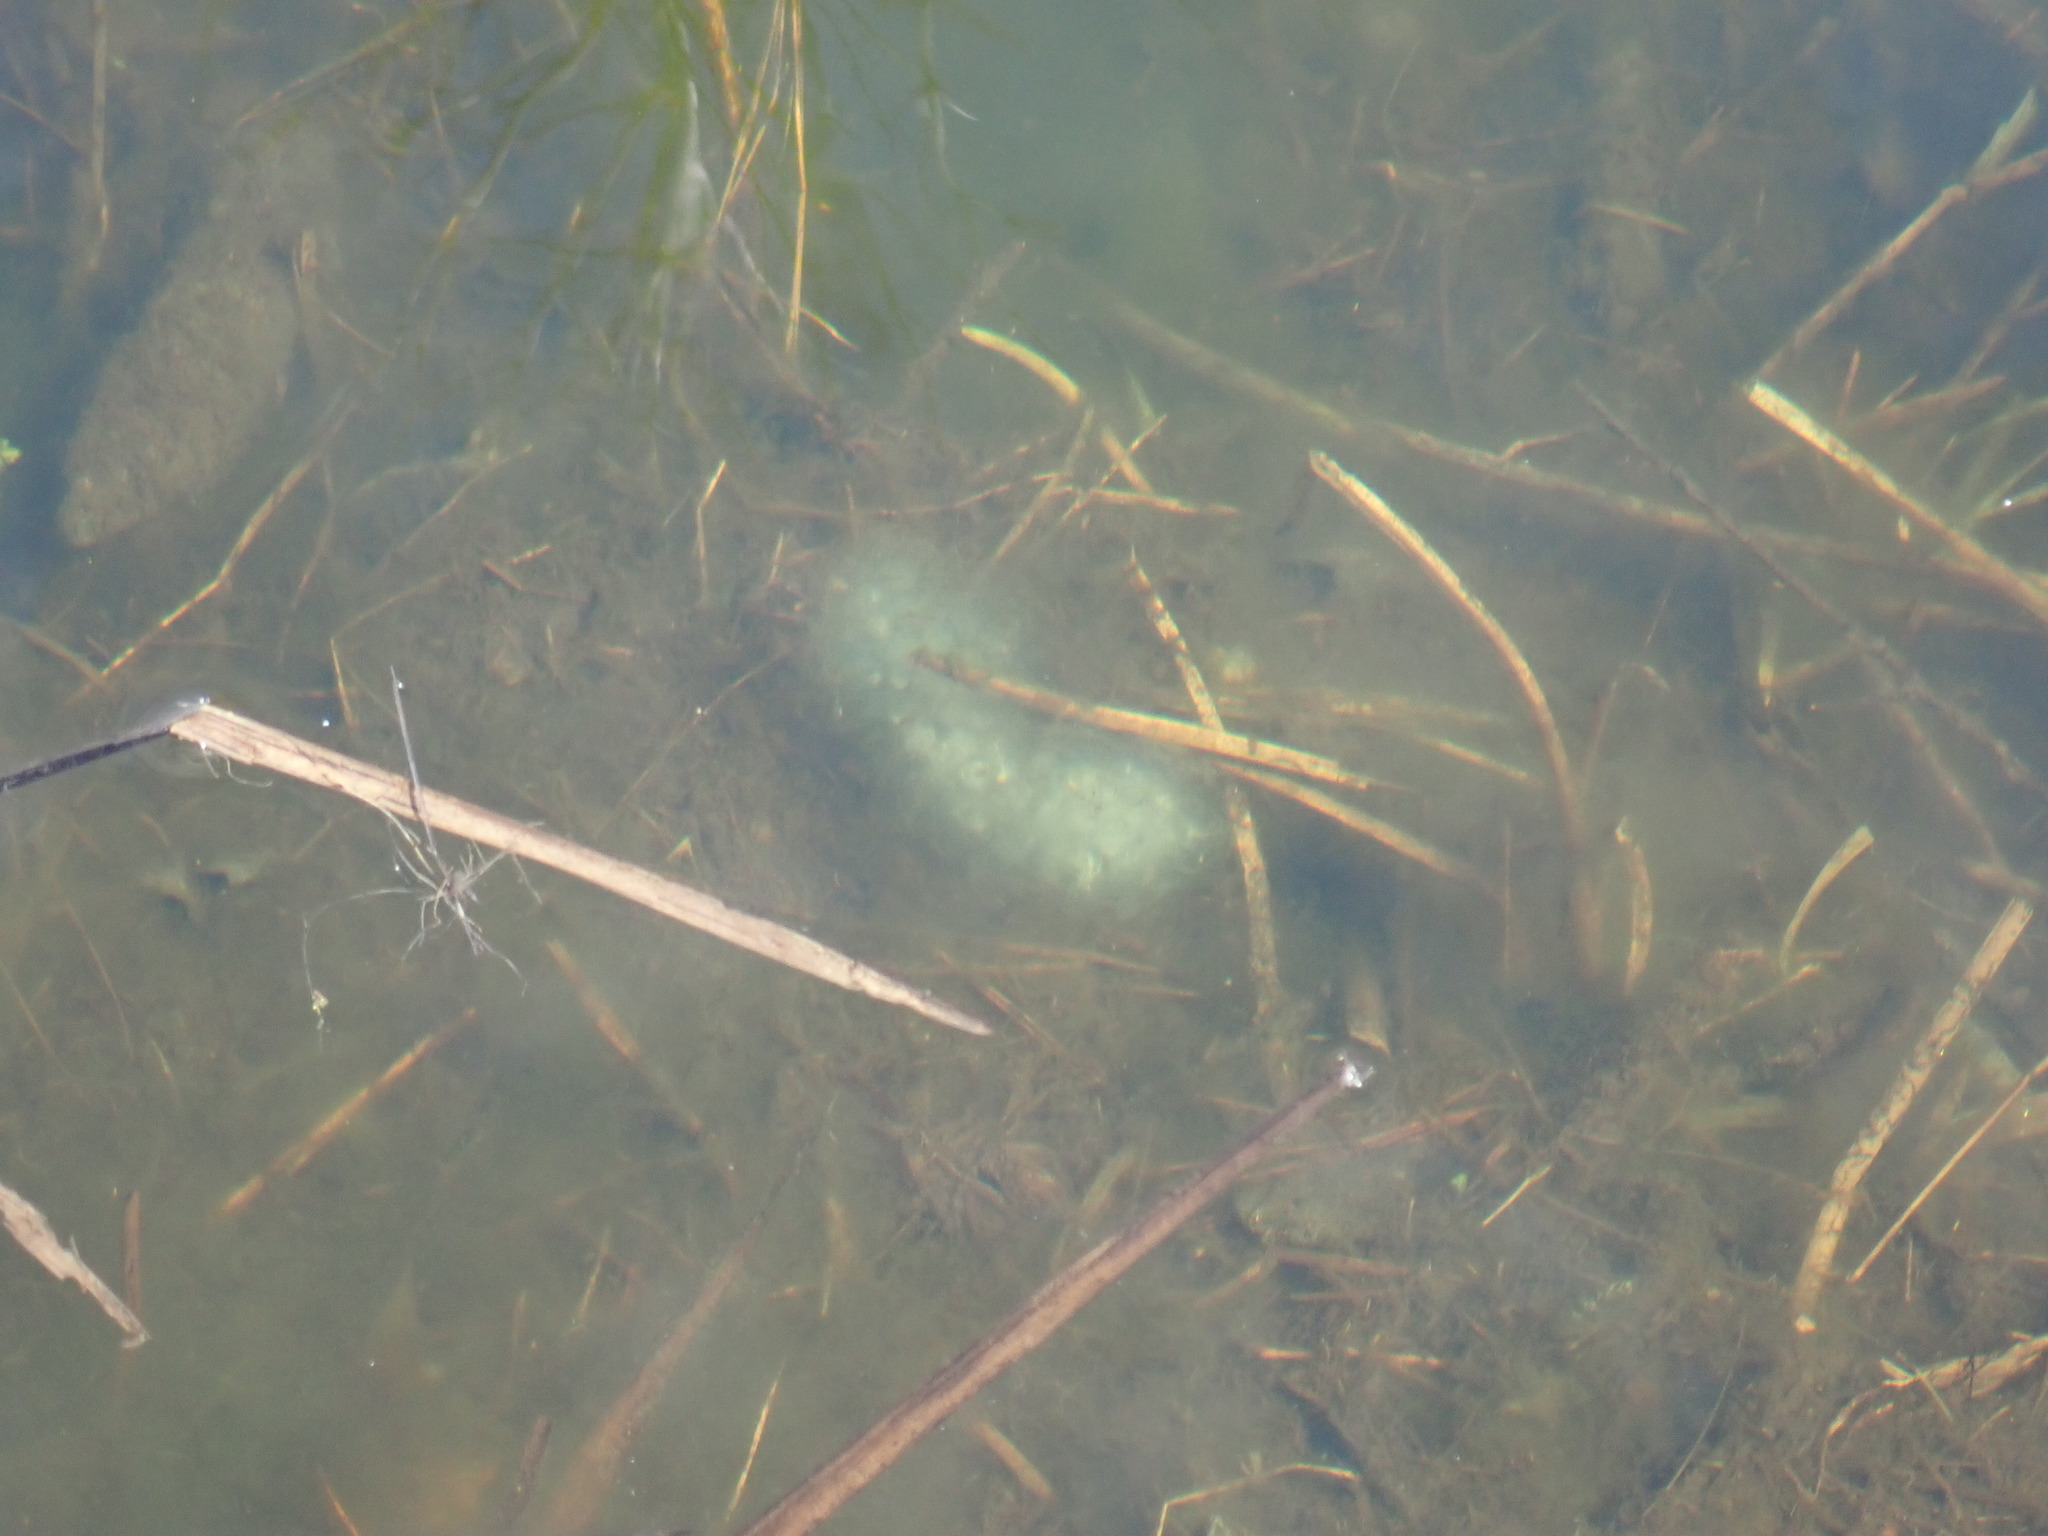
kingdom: Animalia
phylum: Chordata
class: Amphibia
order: Caudata
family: Ambystomatidae
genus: Ambystoma
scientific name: Ambystoma maculatum
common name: Spotted salamander
